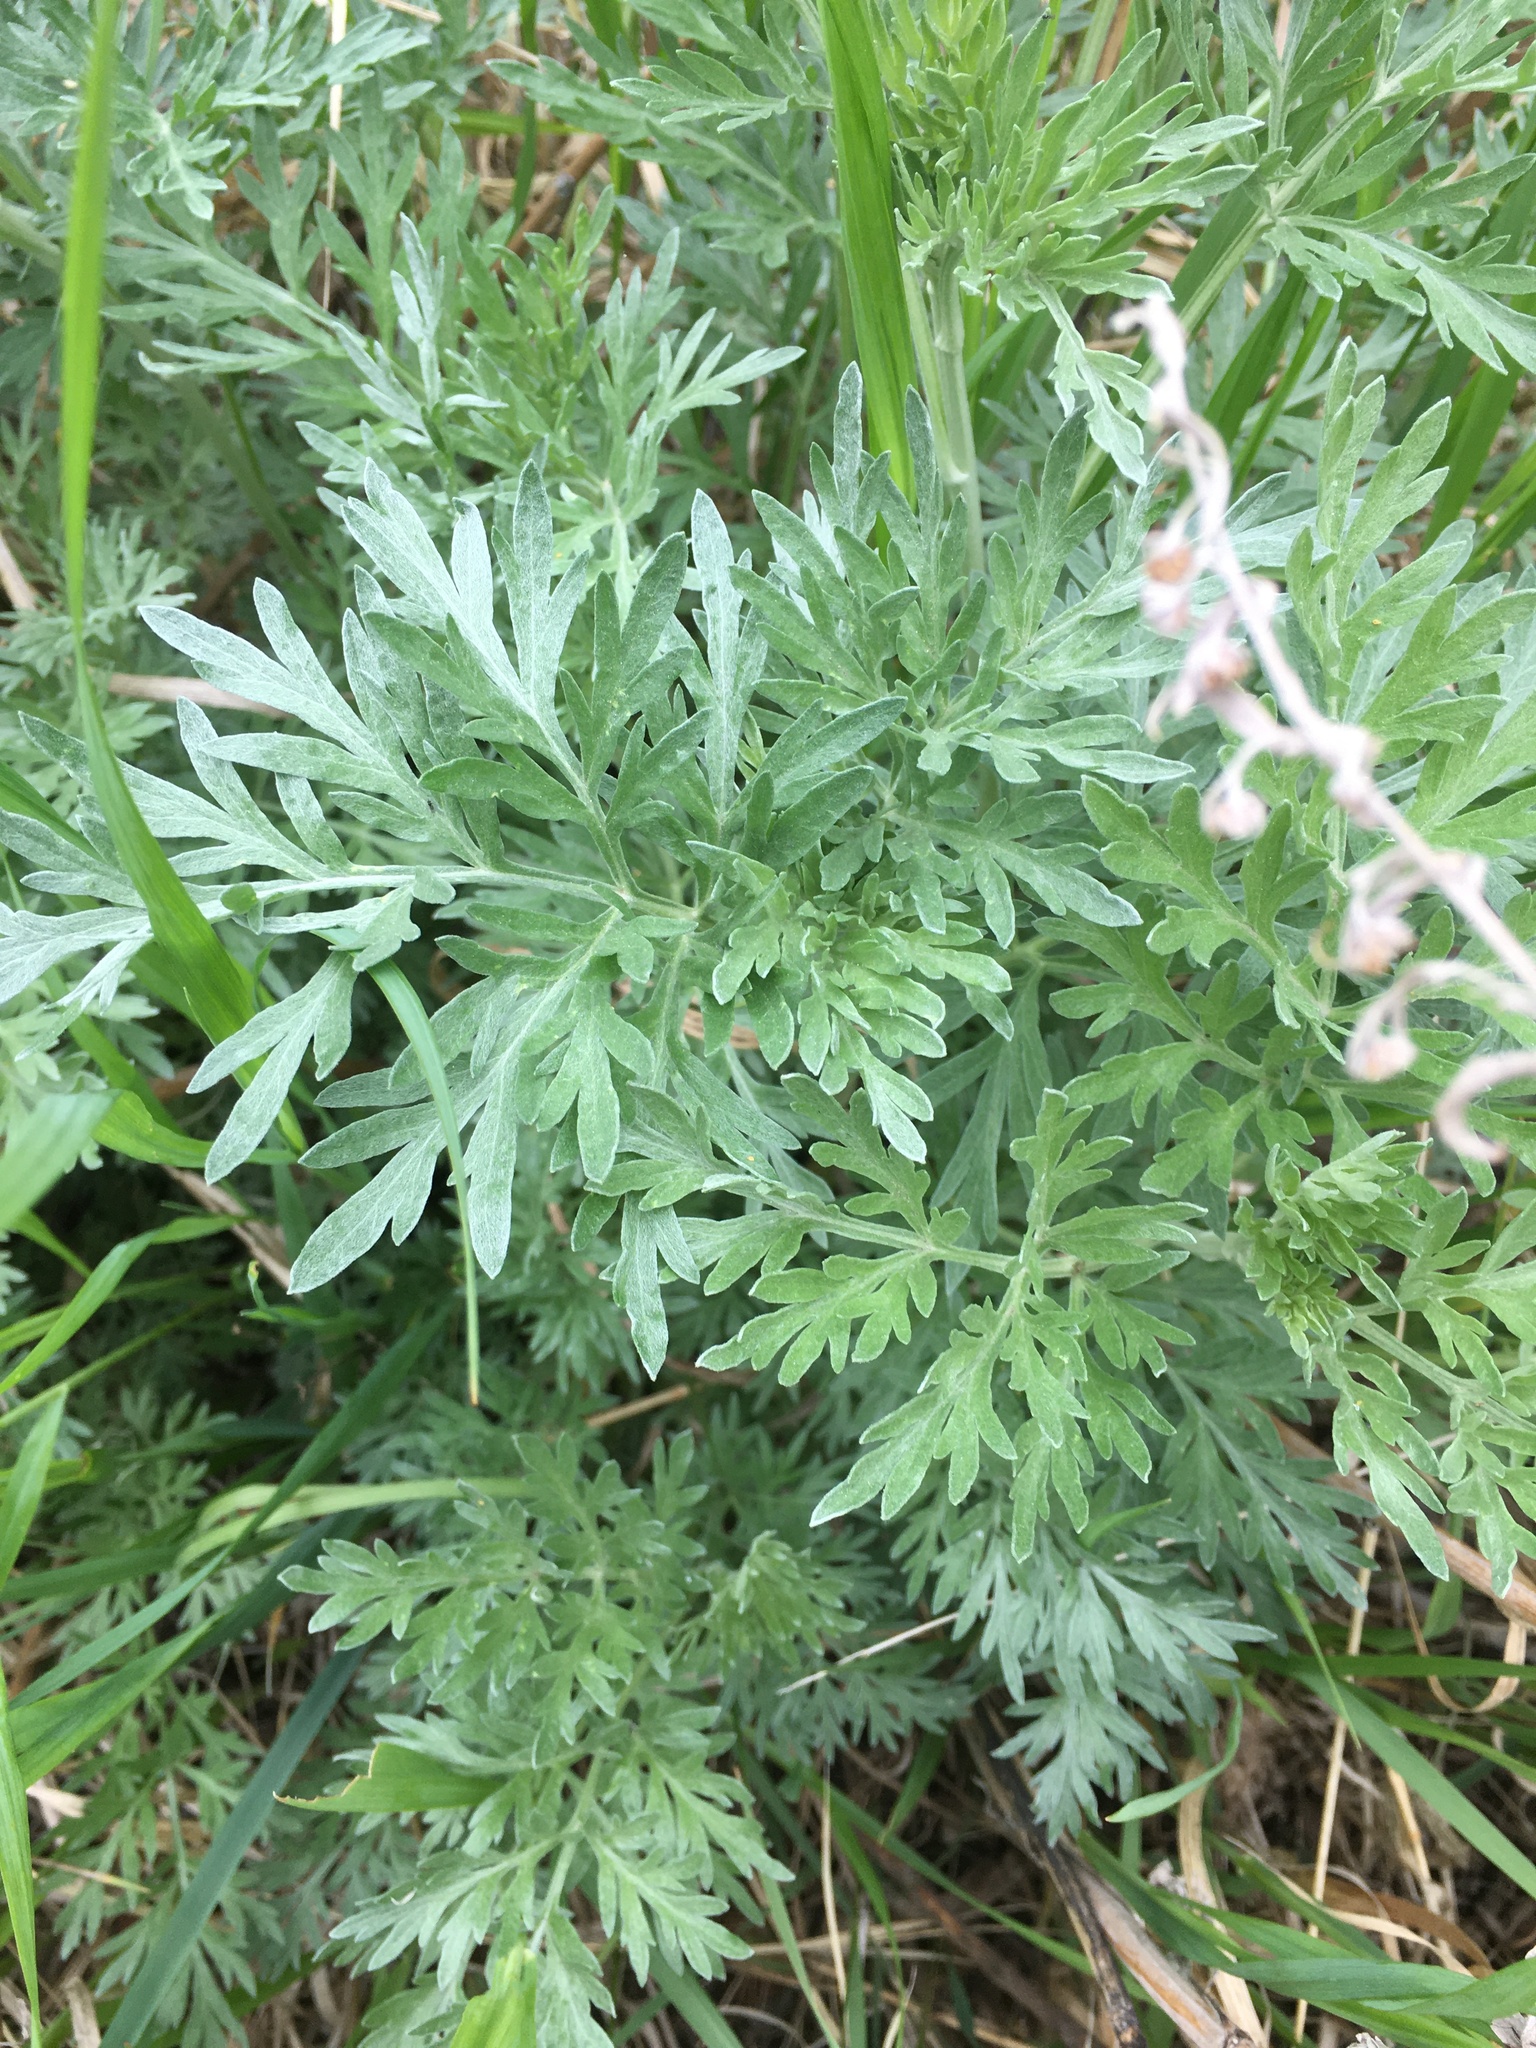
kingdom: Plantae
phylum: Tracheophyta
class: Magnoliopsida
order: Asterales
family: Asteraceae
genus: Artemisia
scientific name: Artemisia absinthium
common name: Wormwood
